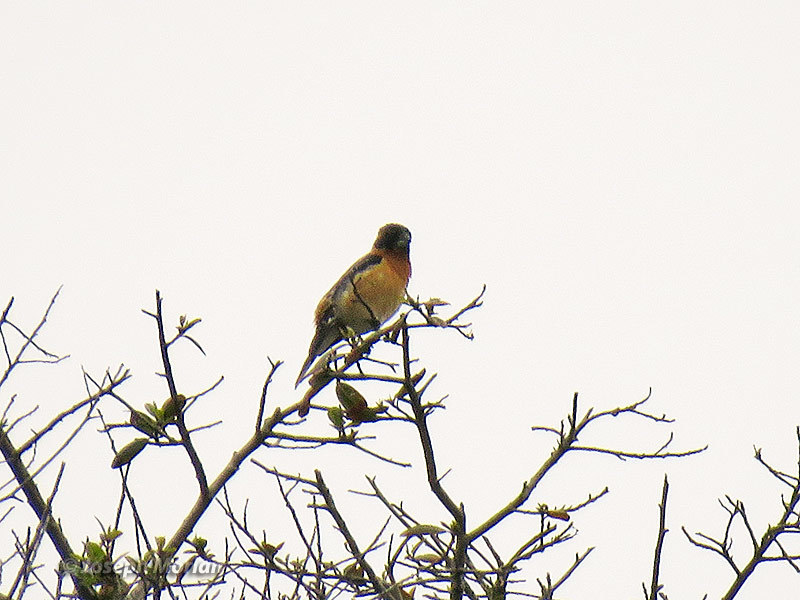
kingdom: Animalia
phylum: Chordata
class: Aves
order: Passeriformes
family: Cardinalidae
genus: Pheucticus
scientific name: Pheucticus melanocephalus
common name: Black-headed grosbeak
